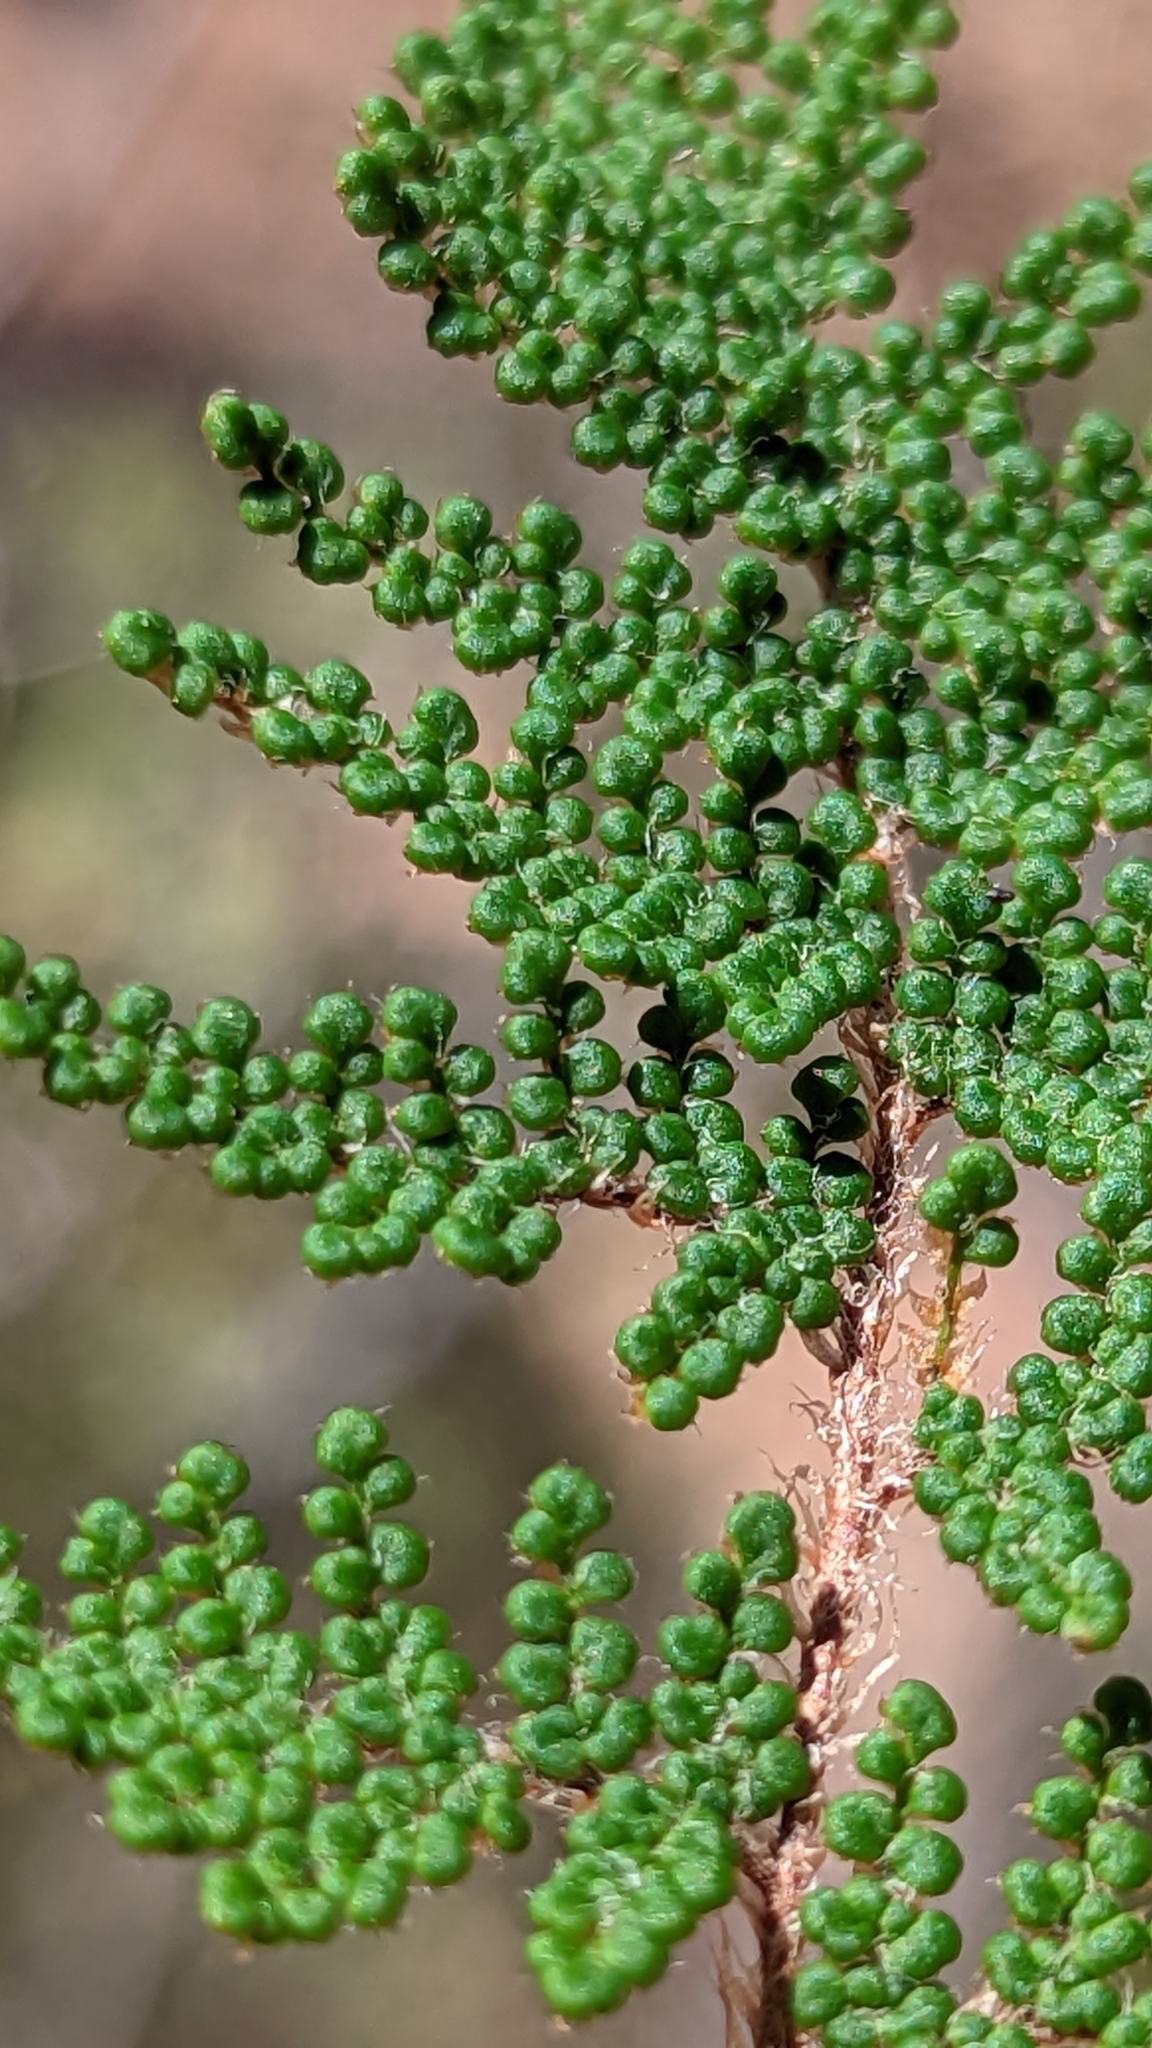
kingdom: Plantae
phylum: Tracheophyta
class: Polypodiopsida
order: Polypodiales
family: Pteridaceae
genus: Myriopteris
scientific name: Myriopteris covillei
